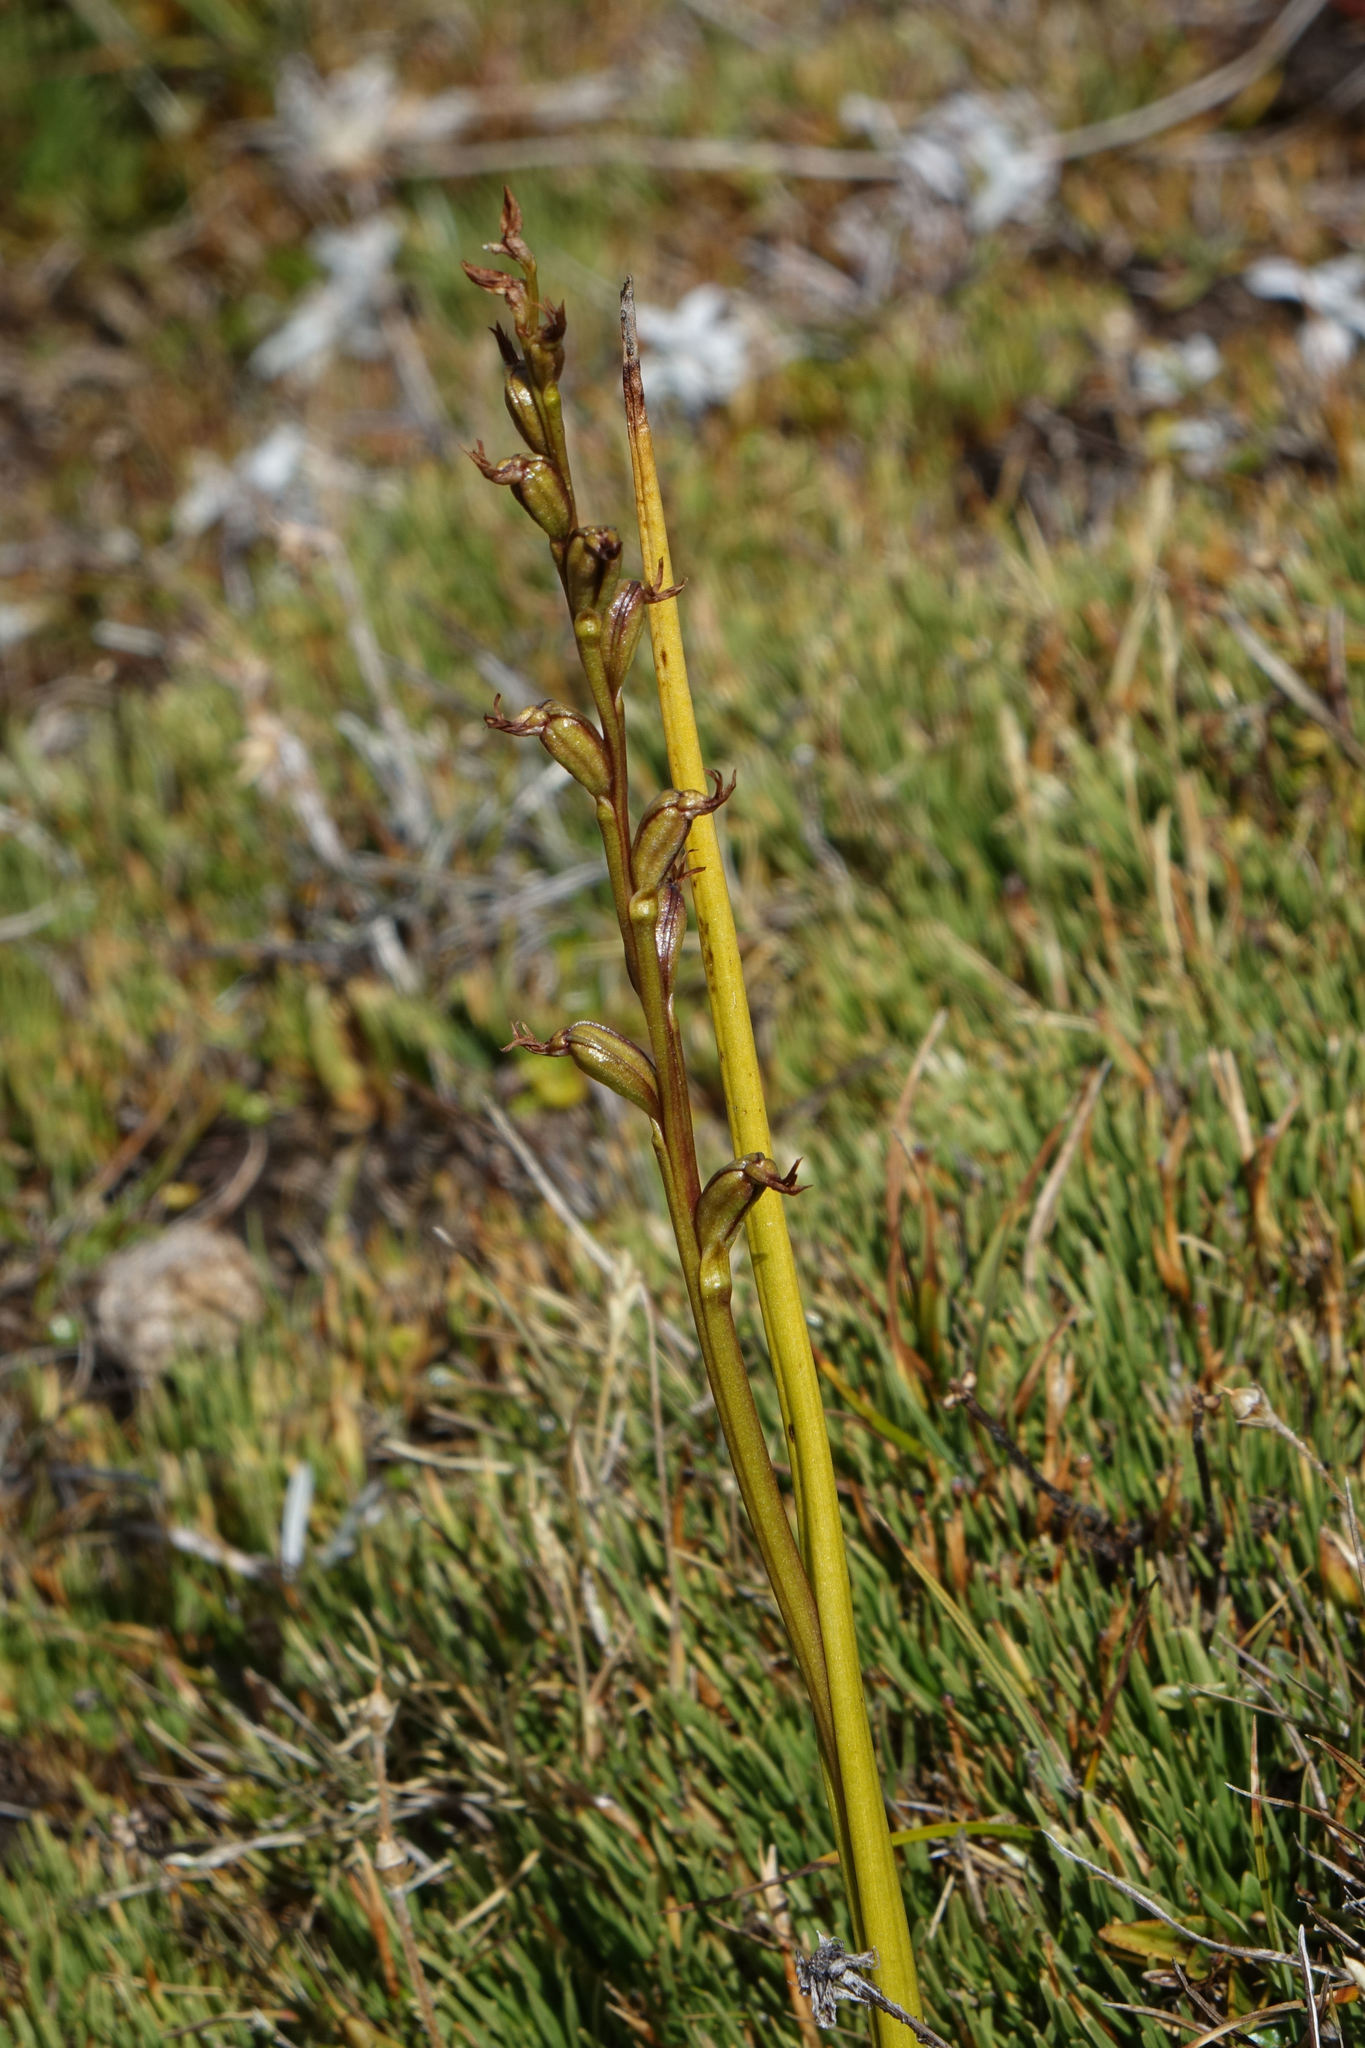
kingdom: Plantae
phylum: Tracheophyta
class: Liliopsida
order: Asparagales
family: Orchidaceae
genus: Prasophyllum
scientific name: Prasophyllum colensoi
